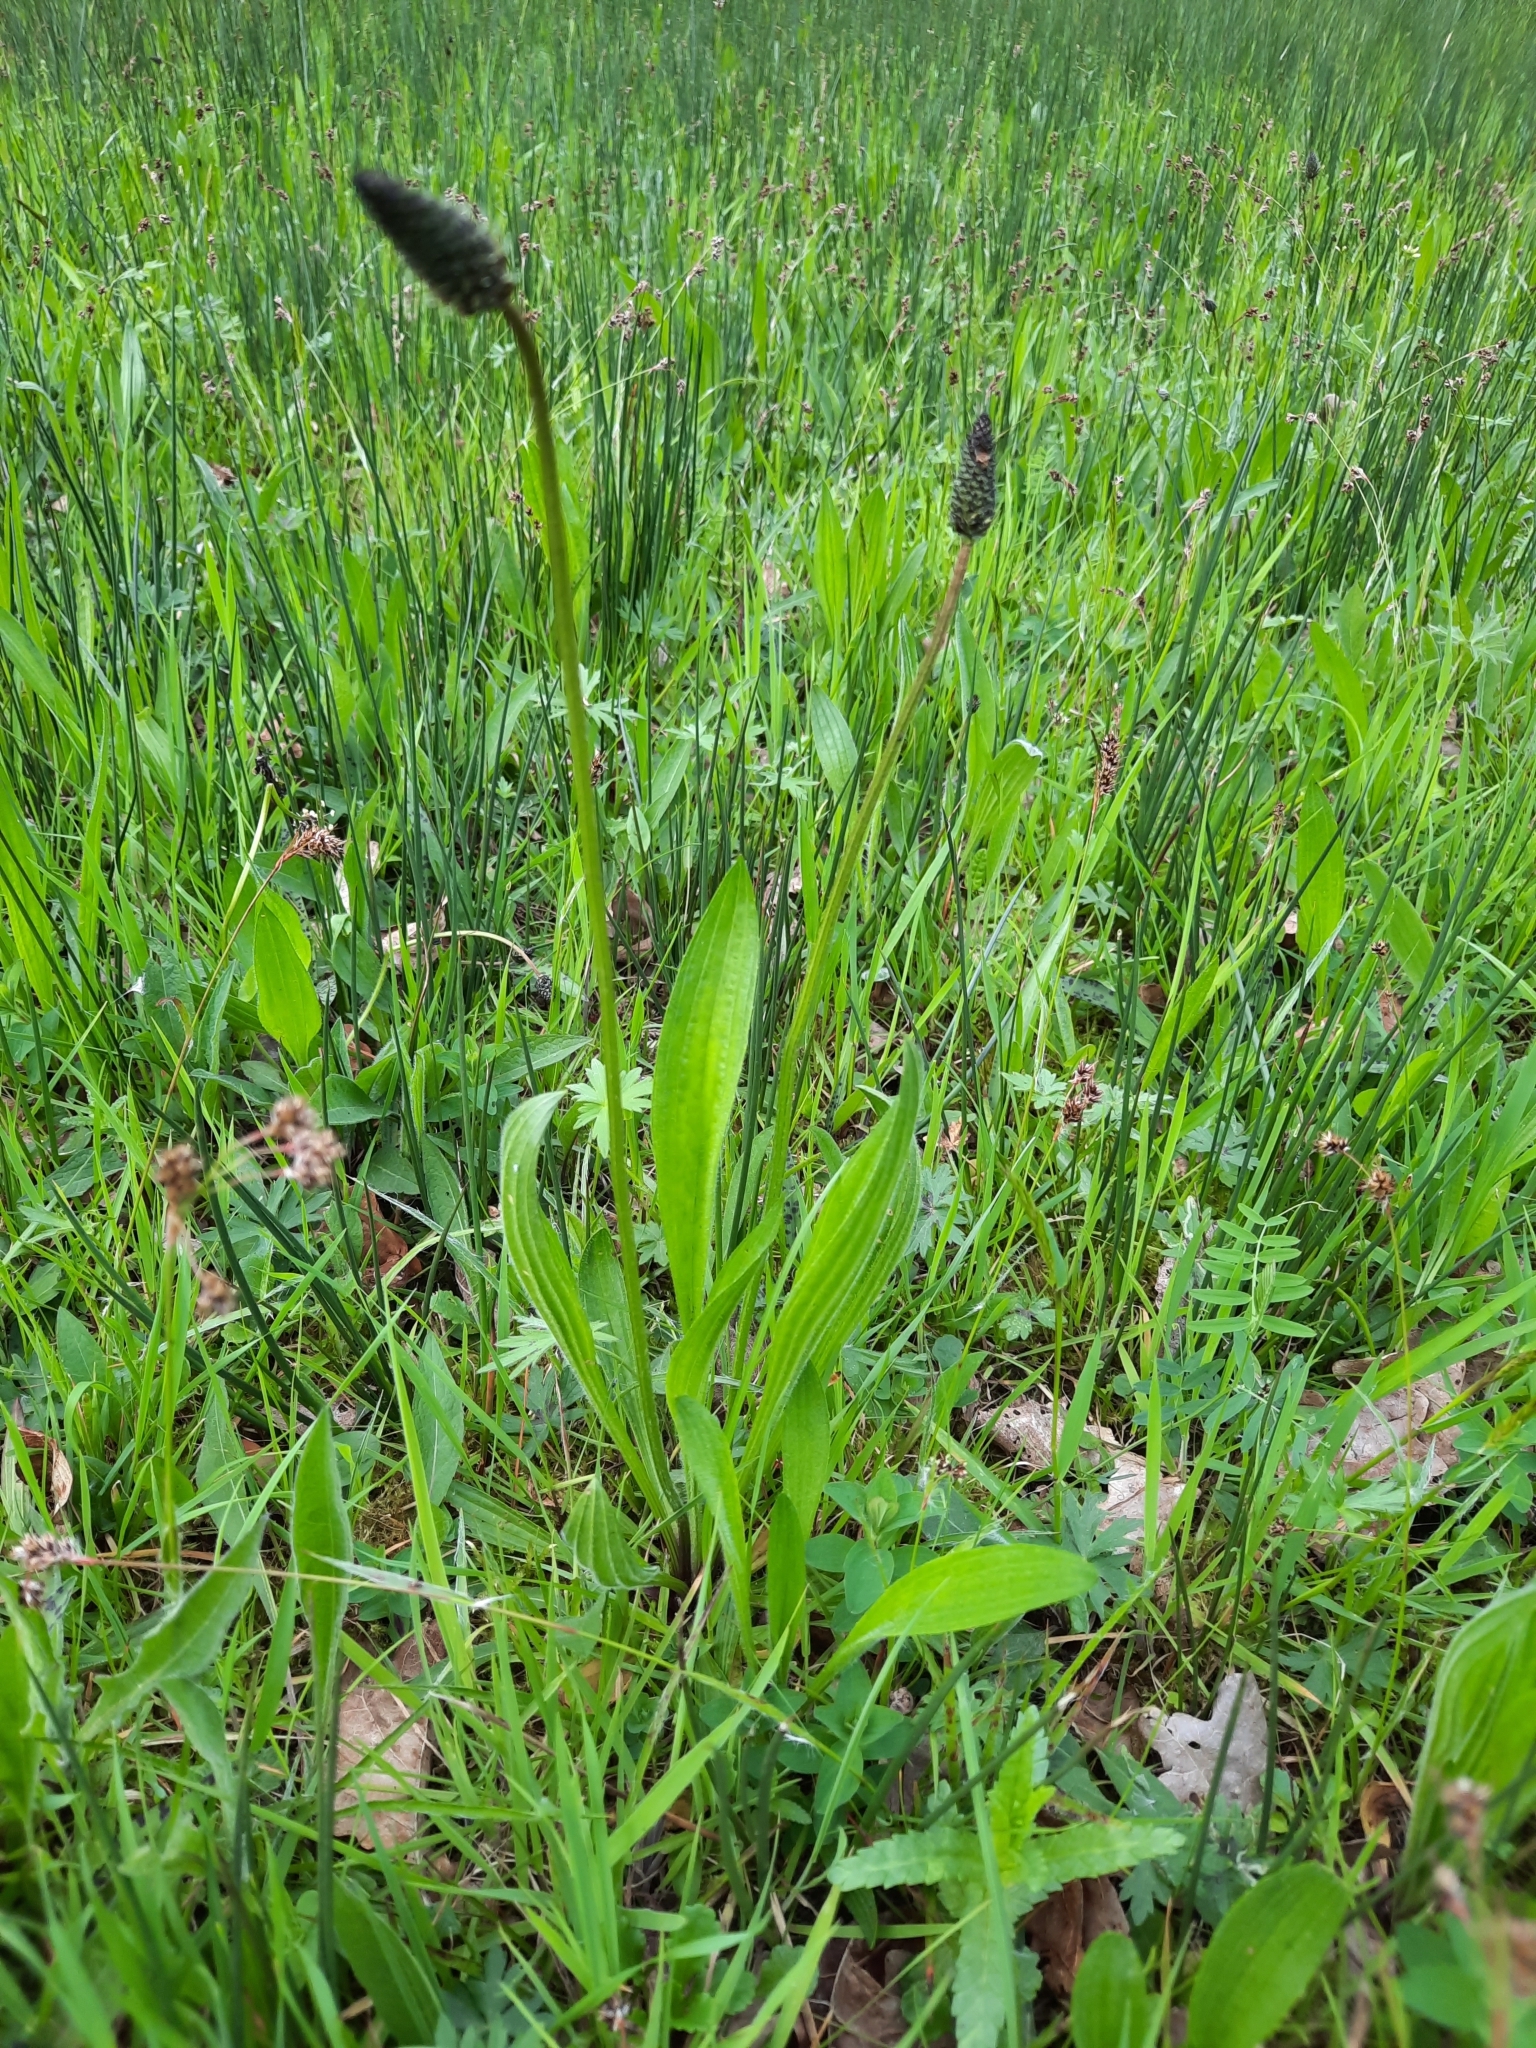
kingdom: Plantae
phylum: Tracheophyta
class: Magnoliopsida
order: Lamiales
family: Plantaginaceae
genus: Plantago
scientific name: Plantago lanceolata
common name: Ribwort plantain
